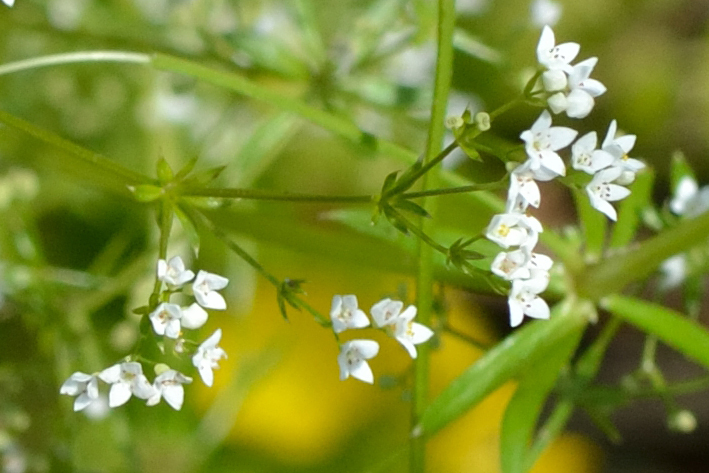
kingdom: Plantae
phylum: Tracheophyta
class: Magnoliopsida
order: Gentianales
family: Rubiaceae
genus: Galium
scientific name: Galium uliginosum
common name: Fen bedstraw
